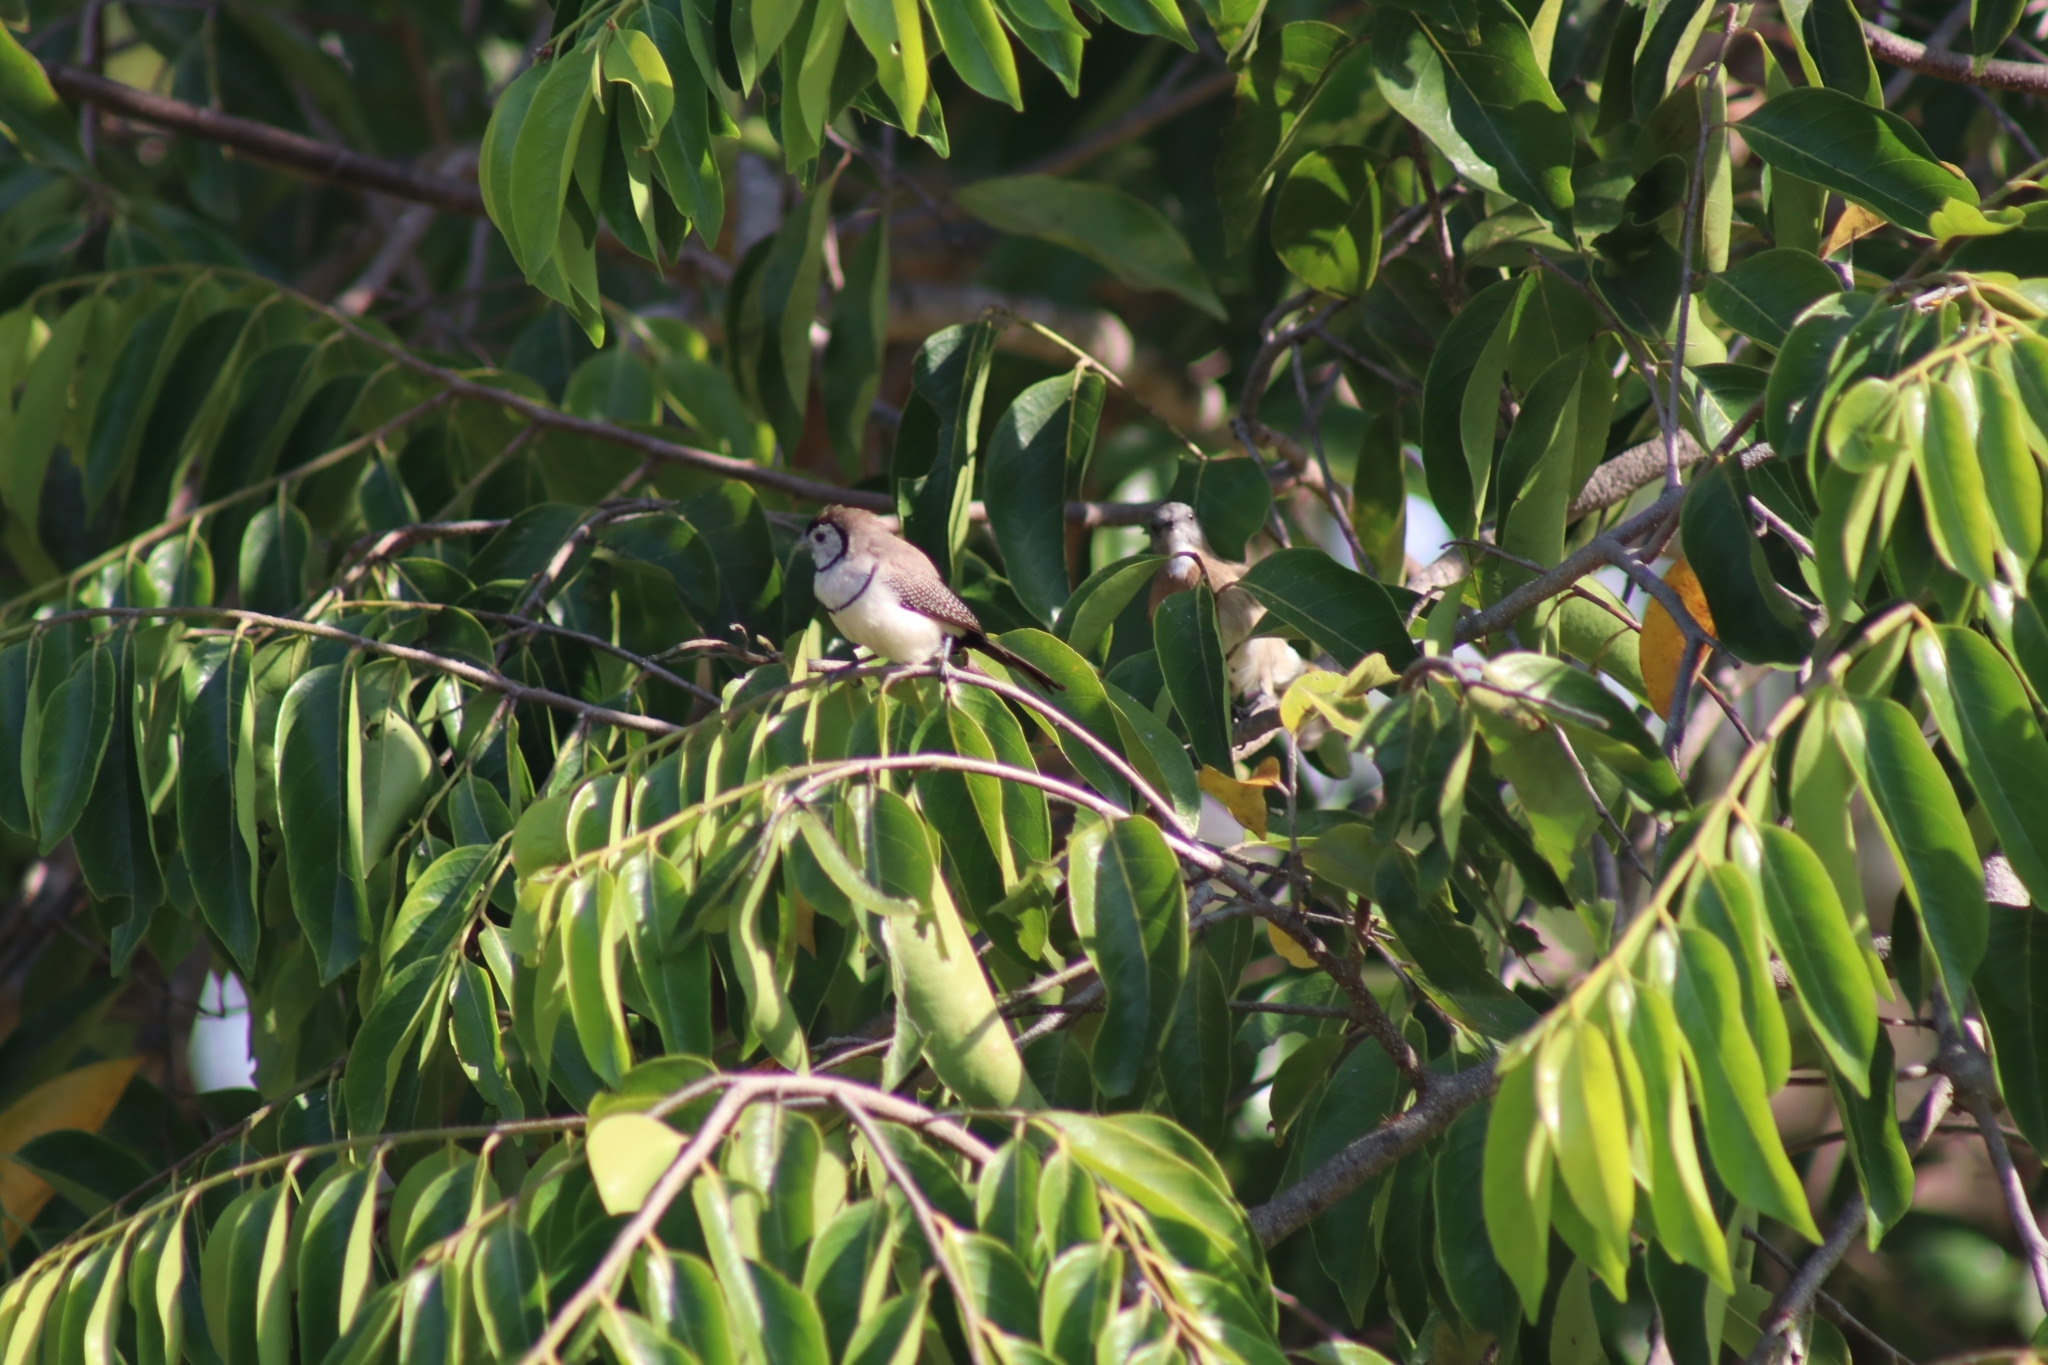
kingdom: Animalia
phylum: Chordata
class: Aves
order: Passeriformes
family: Estrildidae
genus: Taeniopygia
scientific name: Taeniopygia bichenovii
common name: Double-barred finch
